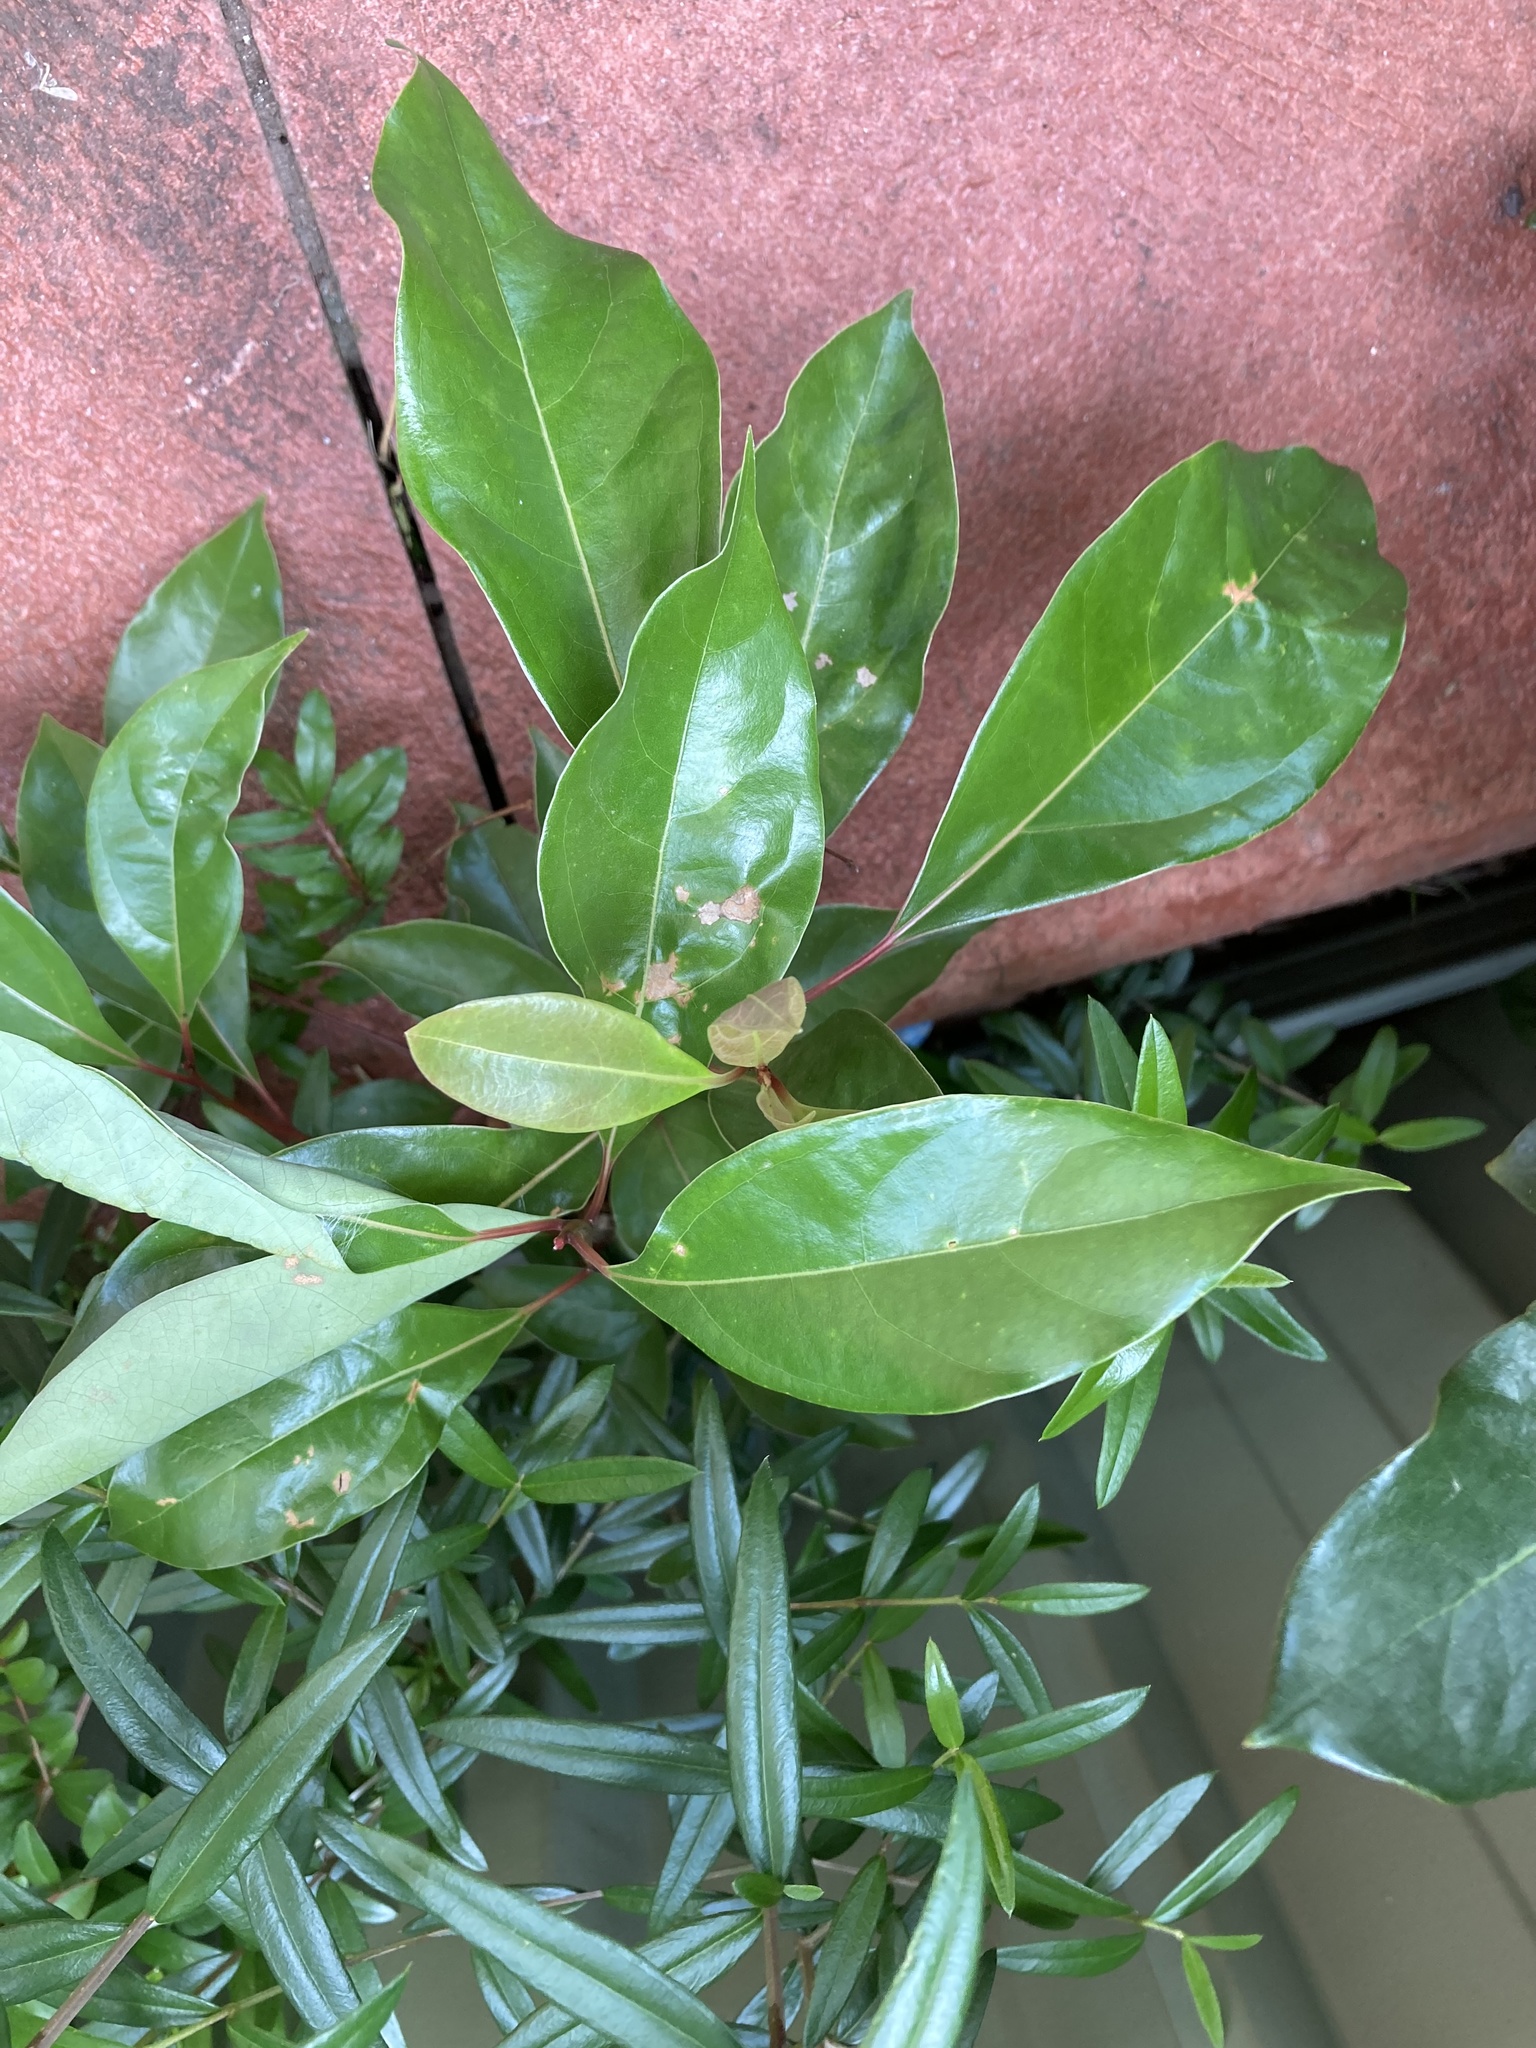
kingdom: Plantae
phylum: Tracheophyta
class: Magnoliopsida
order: Laurales
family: Lauraceae
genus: Cinnamomum
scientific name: Cinnamomum camphora
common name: Camphortree
